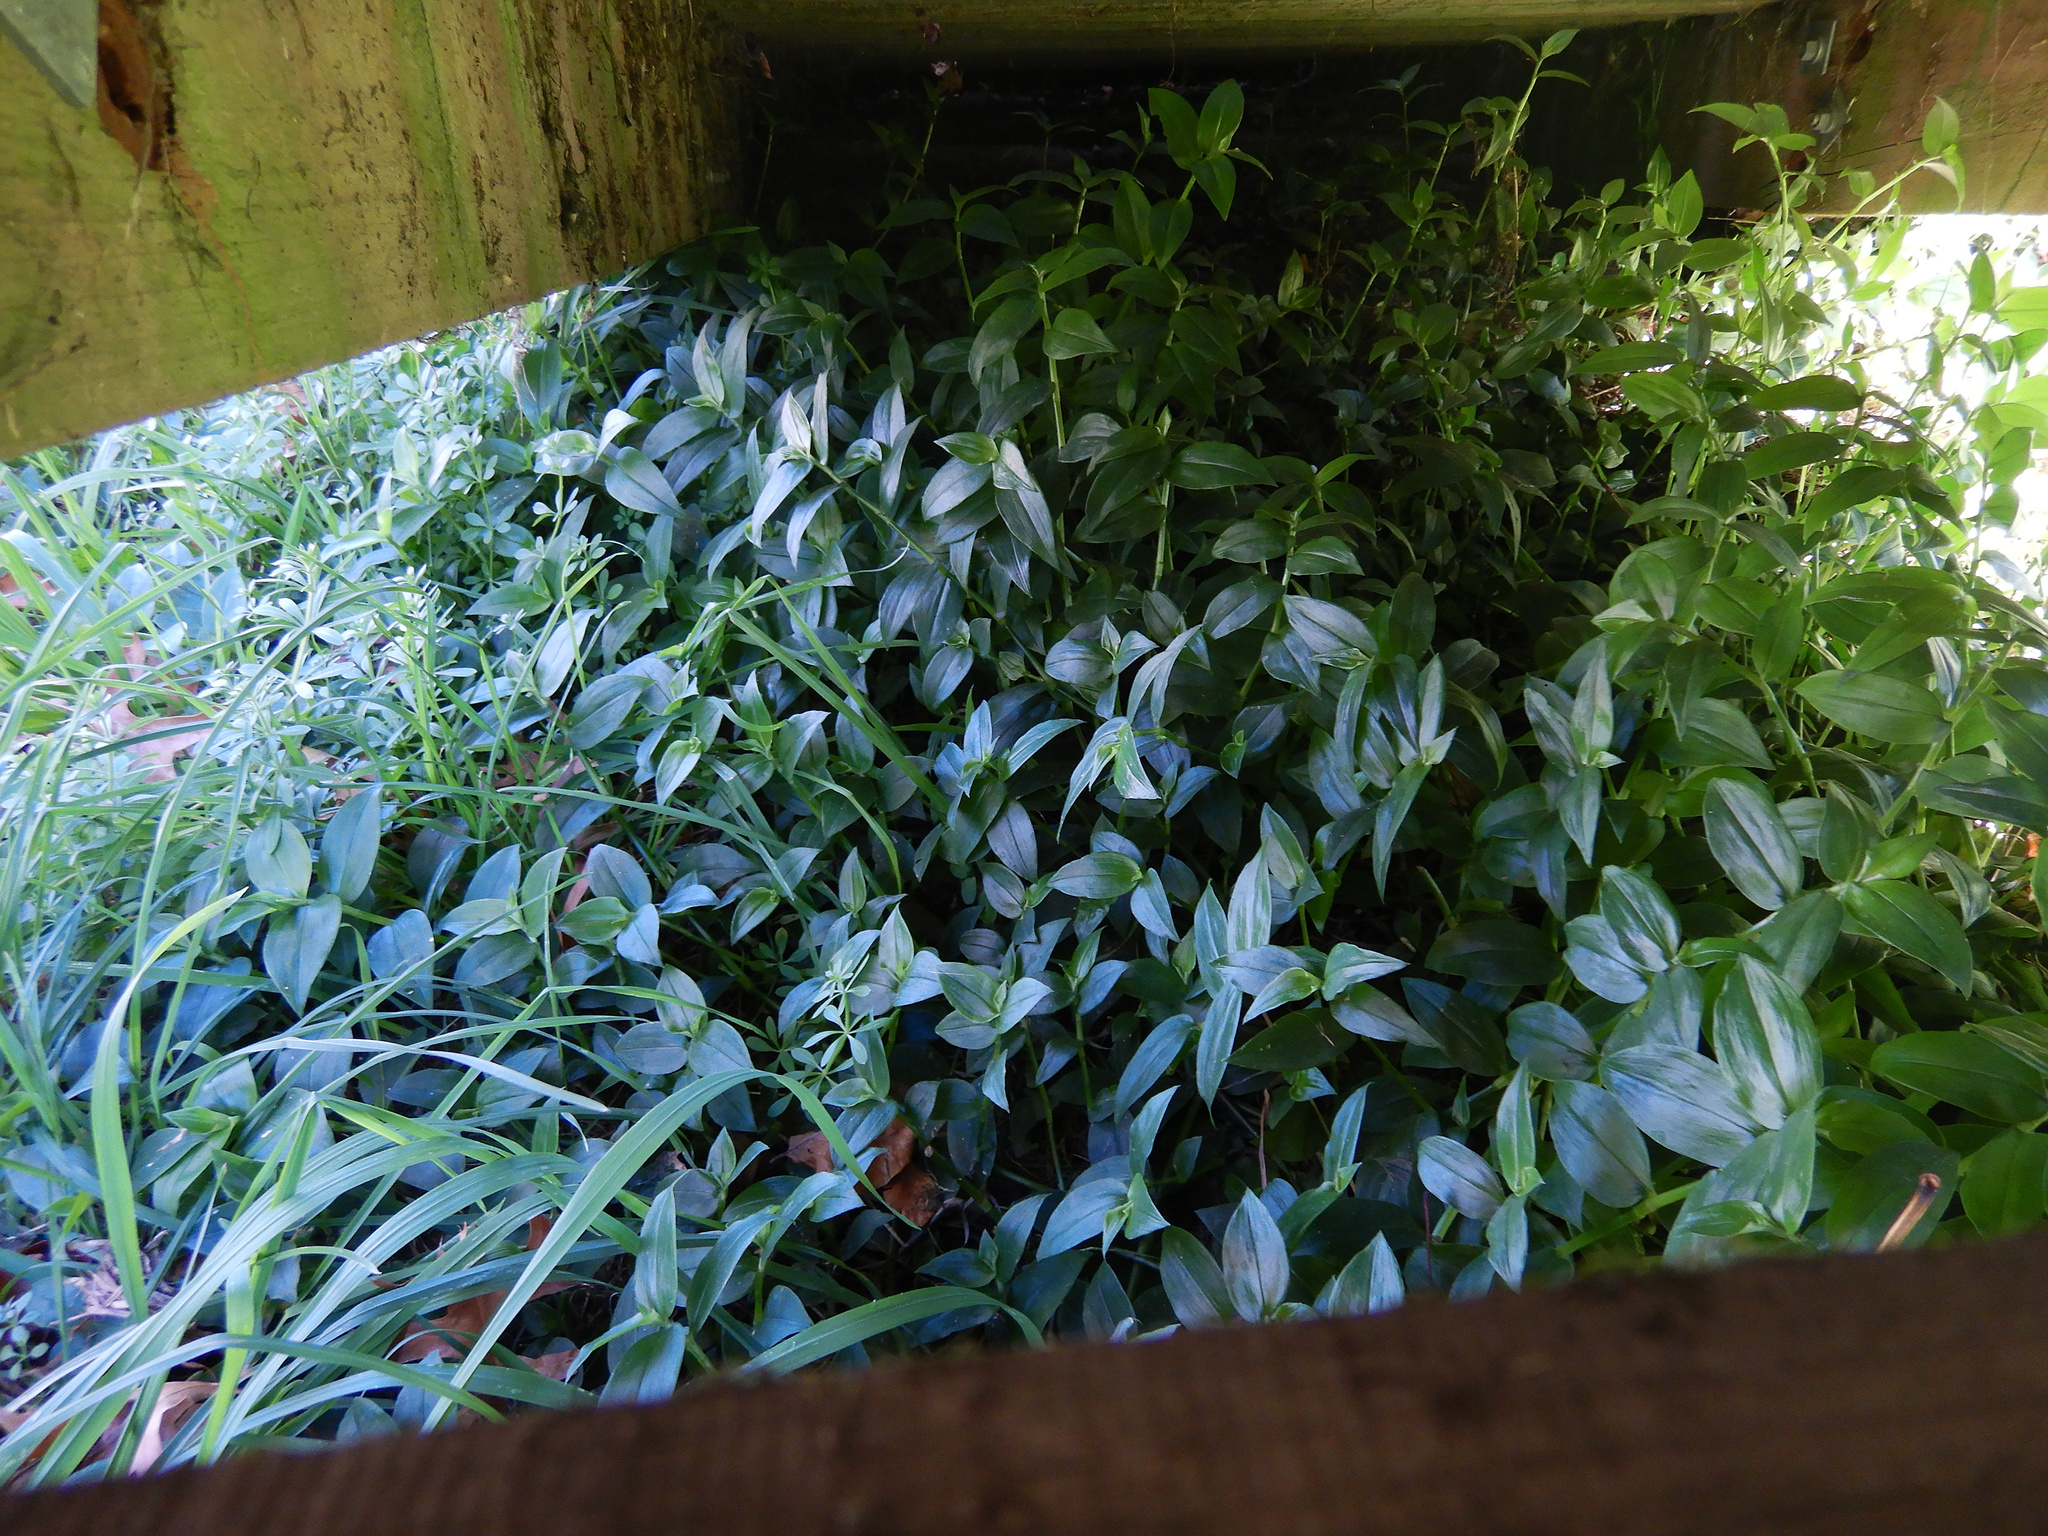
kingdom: Plantae
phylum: Tracheophyta
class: Liliopsida
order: Commelinales
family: Commelinaceae
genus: Tradescantia
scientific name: Tradescantia fluminensis
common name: Wandering-jew
